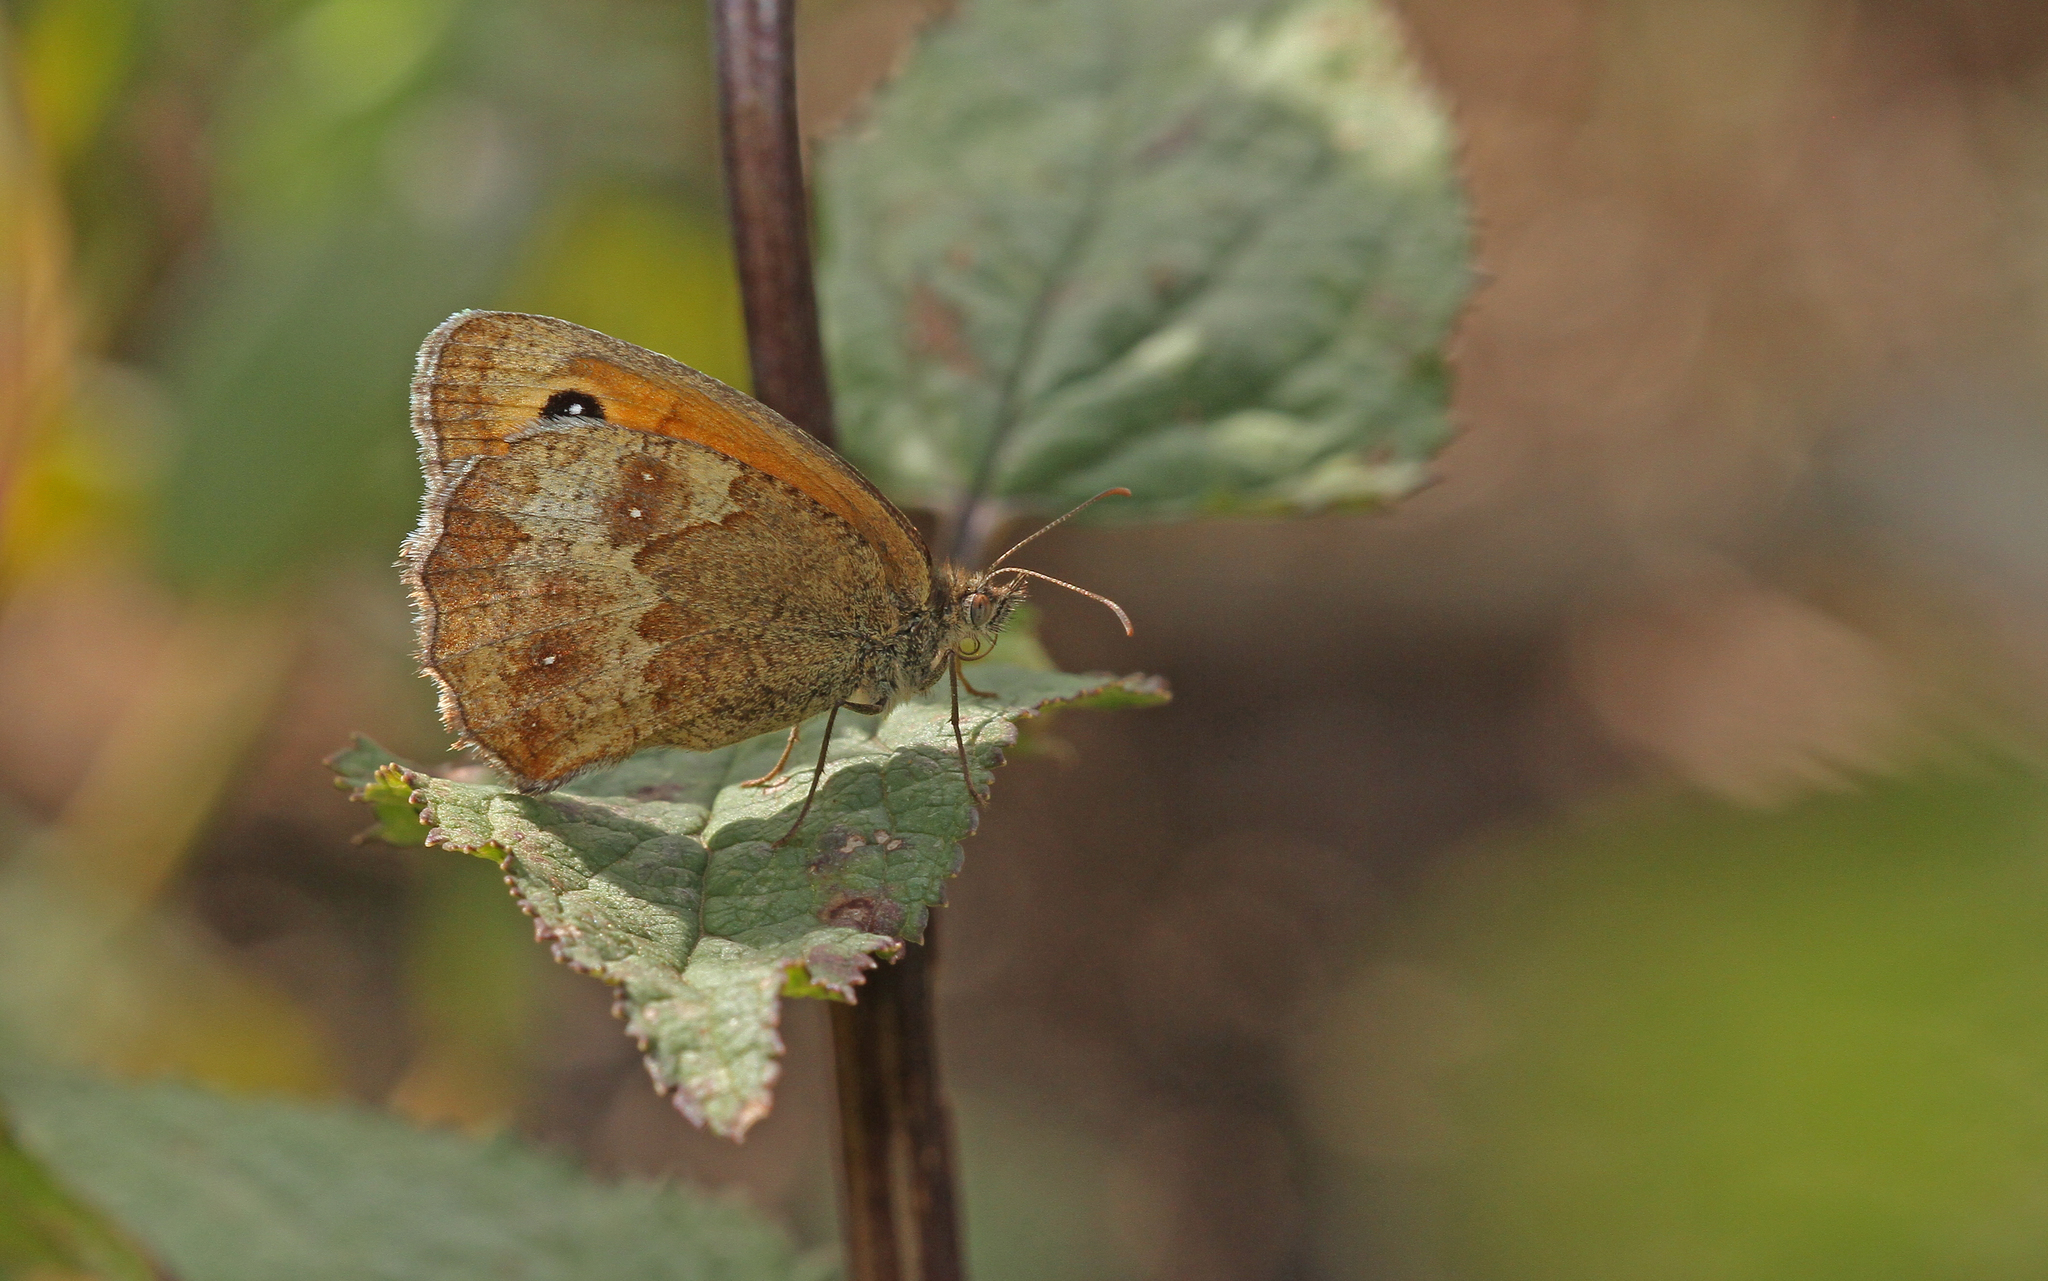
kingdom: Animalia
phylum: Arthropoda
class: Insecta
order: Lepidoptera
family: Nymphalidae
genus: Pyronia
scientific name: Pyronia tithonus
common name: Gatekeeper
